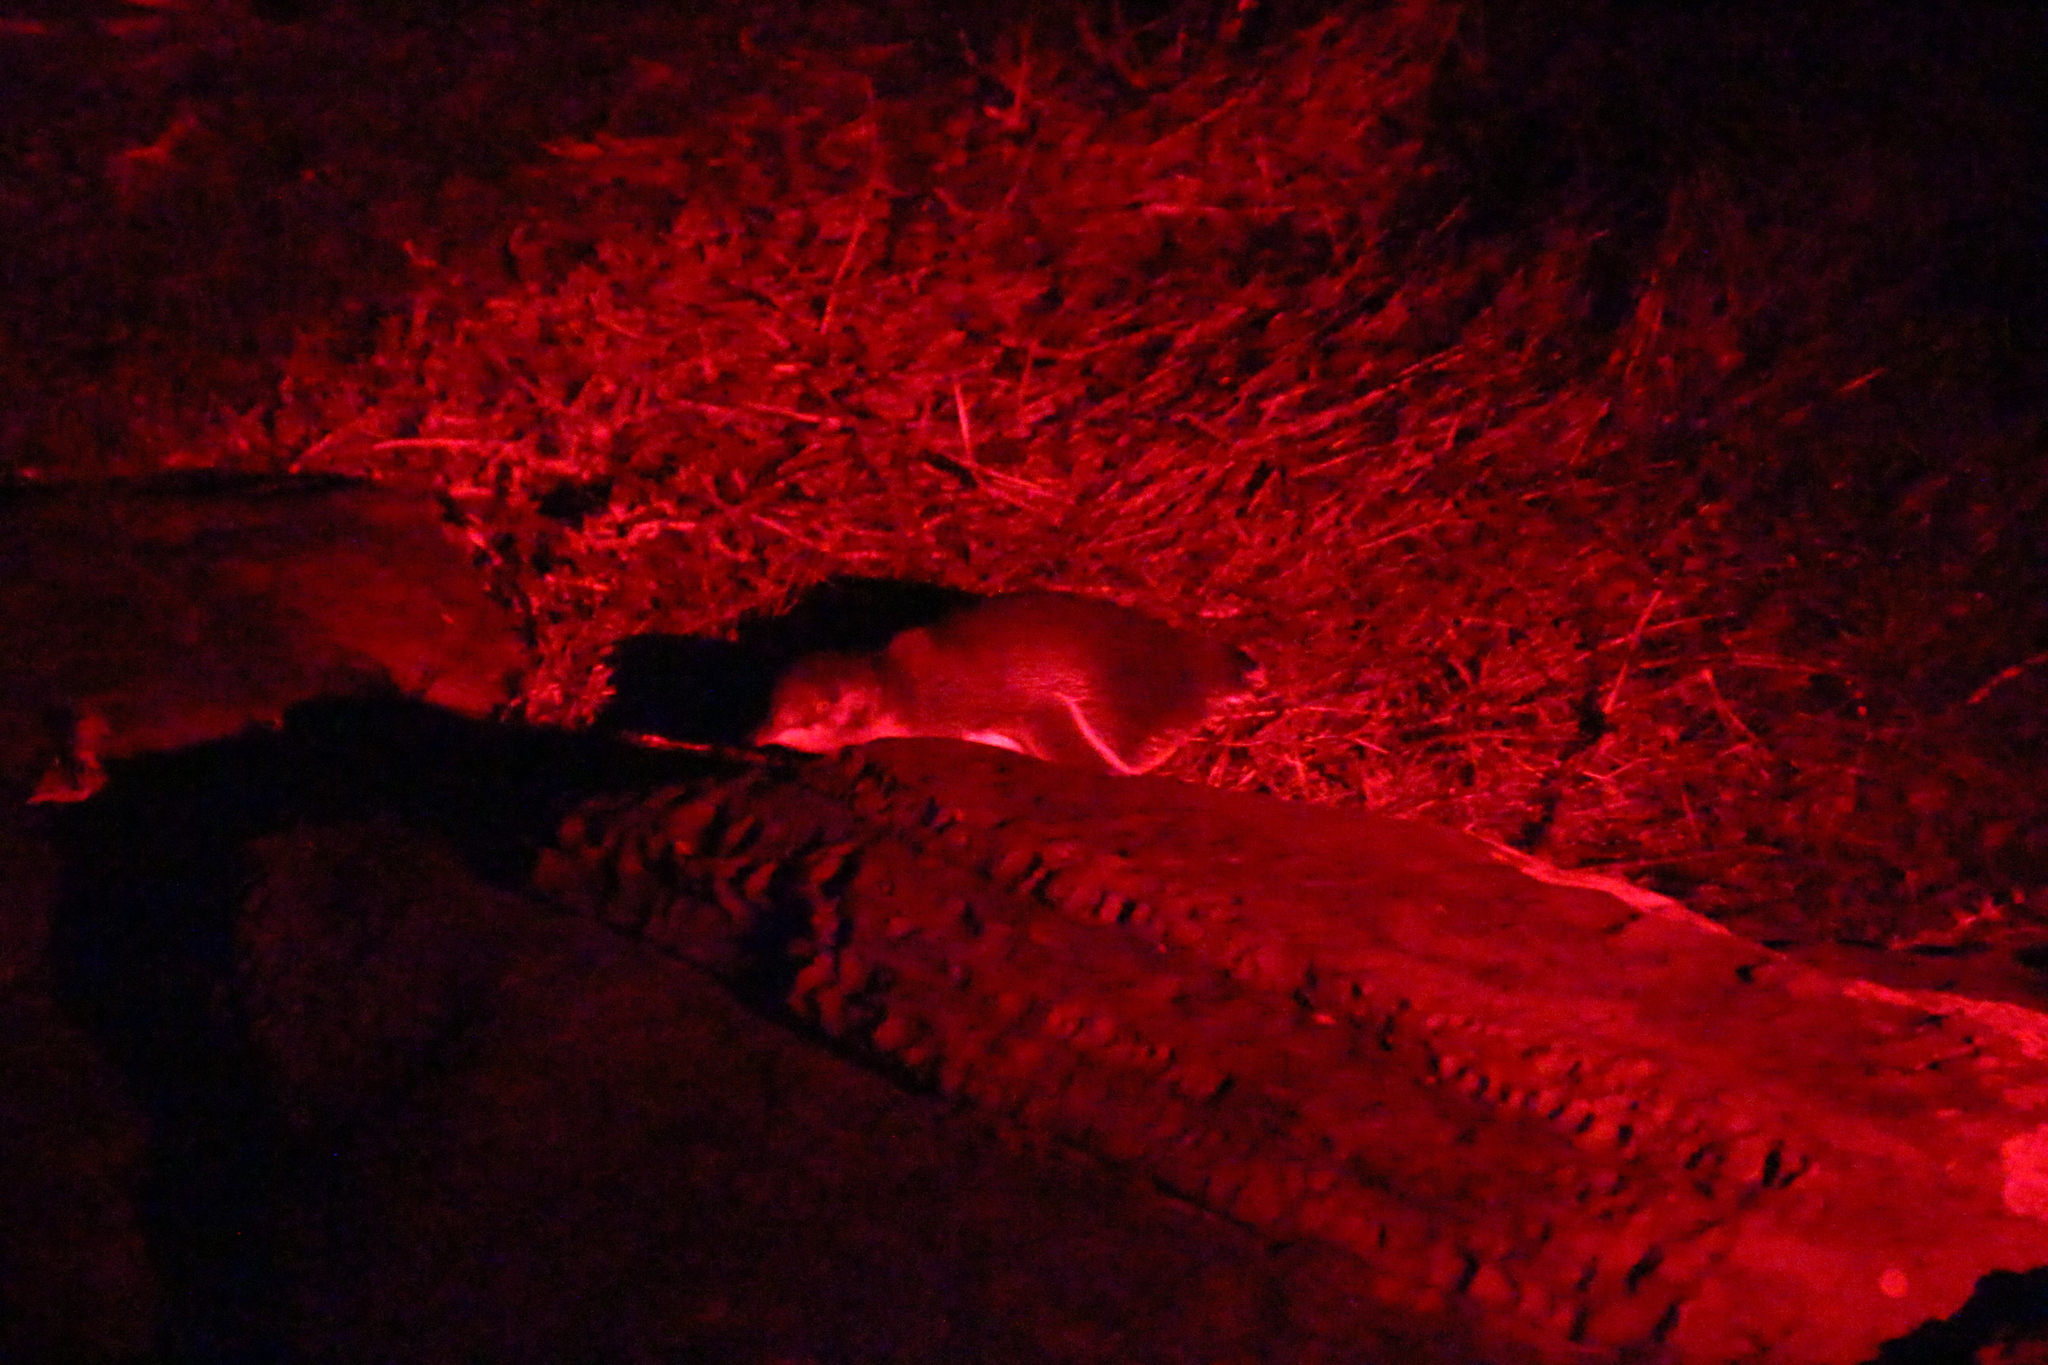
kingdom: Animalia
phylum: Chordata
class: Aves
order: Sphenisciformes
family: Spheniscidae
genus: Eudyptula
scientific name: Eudyptula minor
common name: Little penguin
